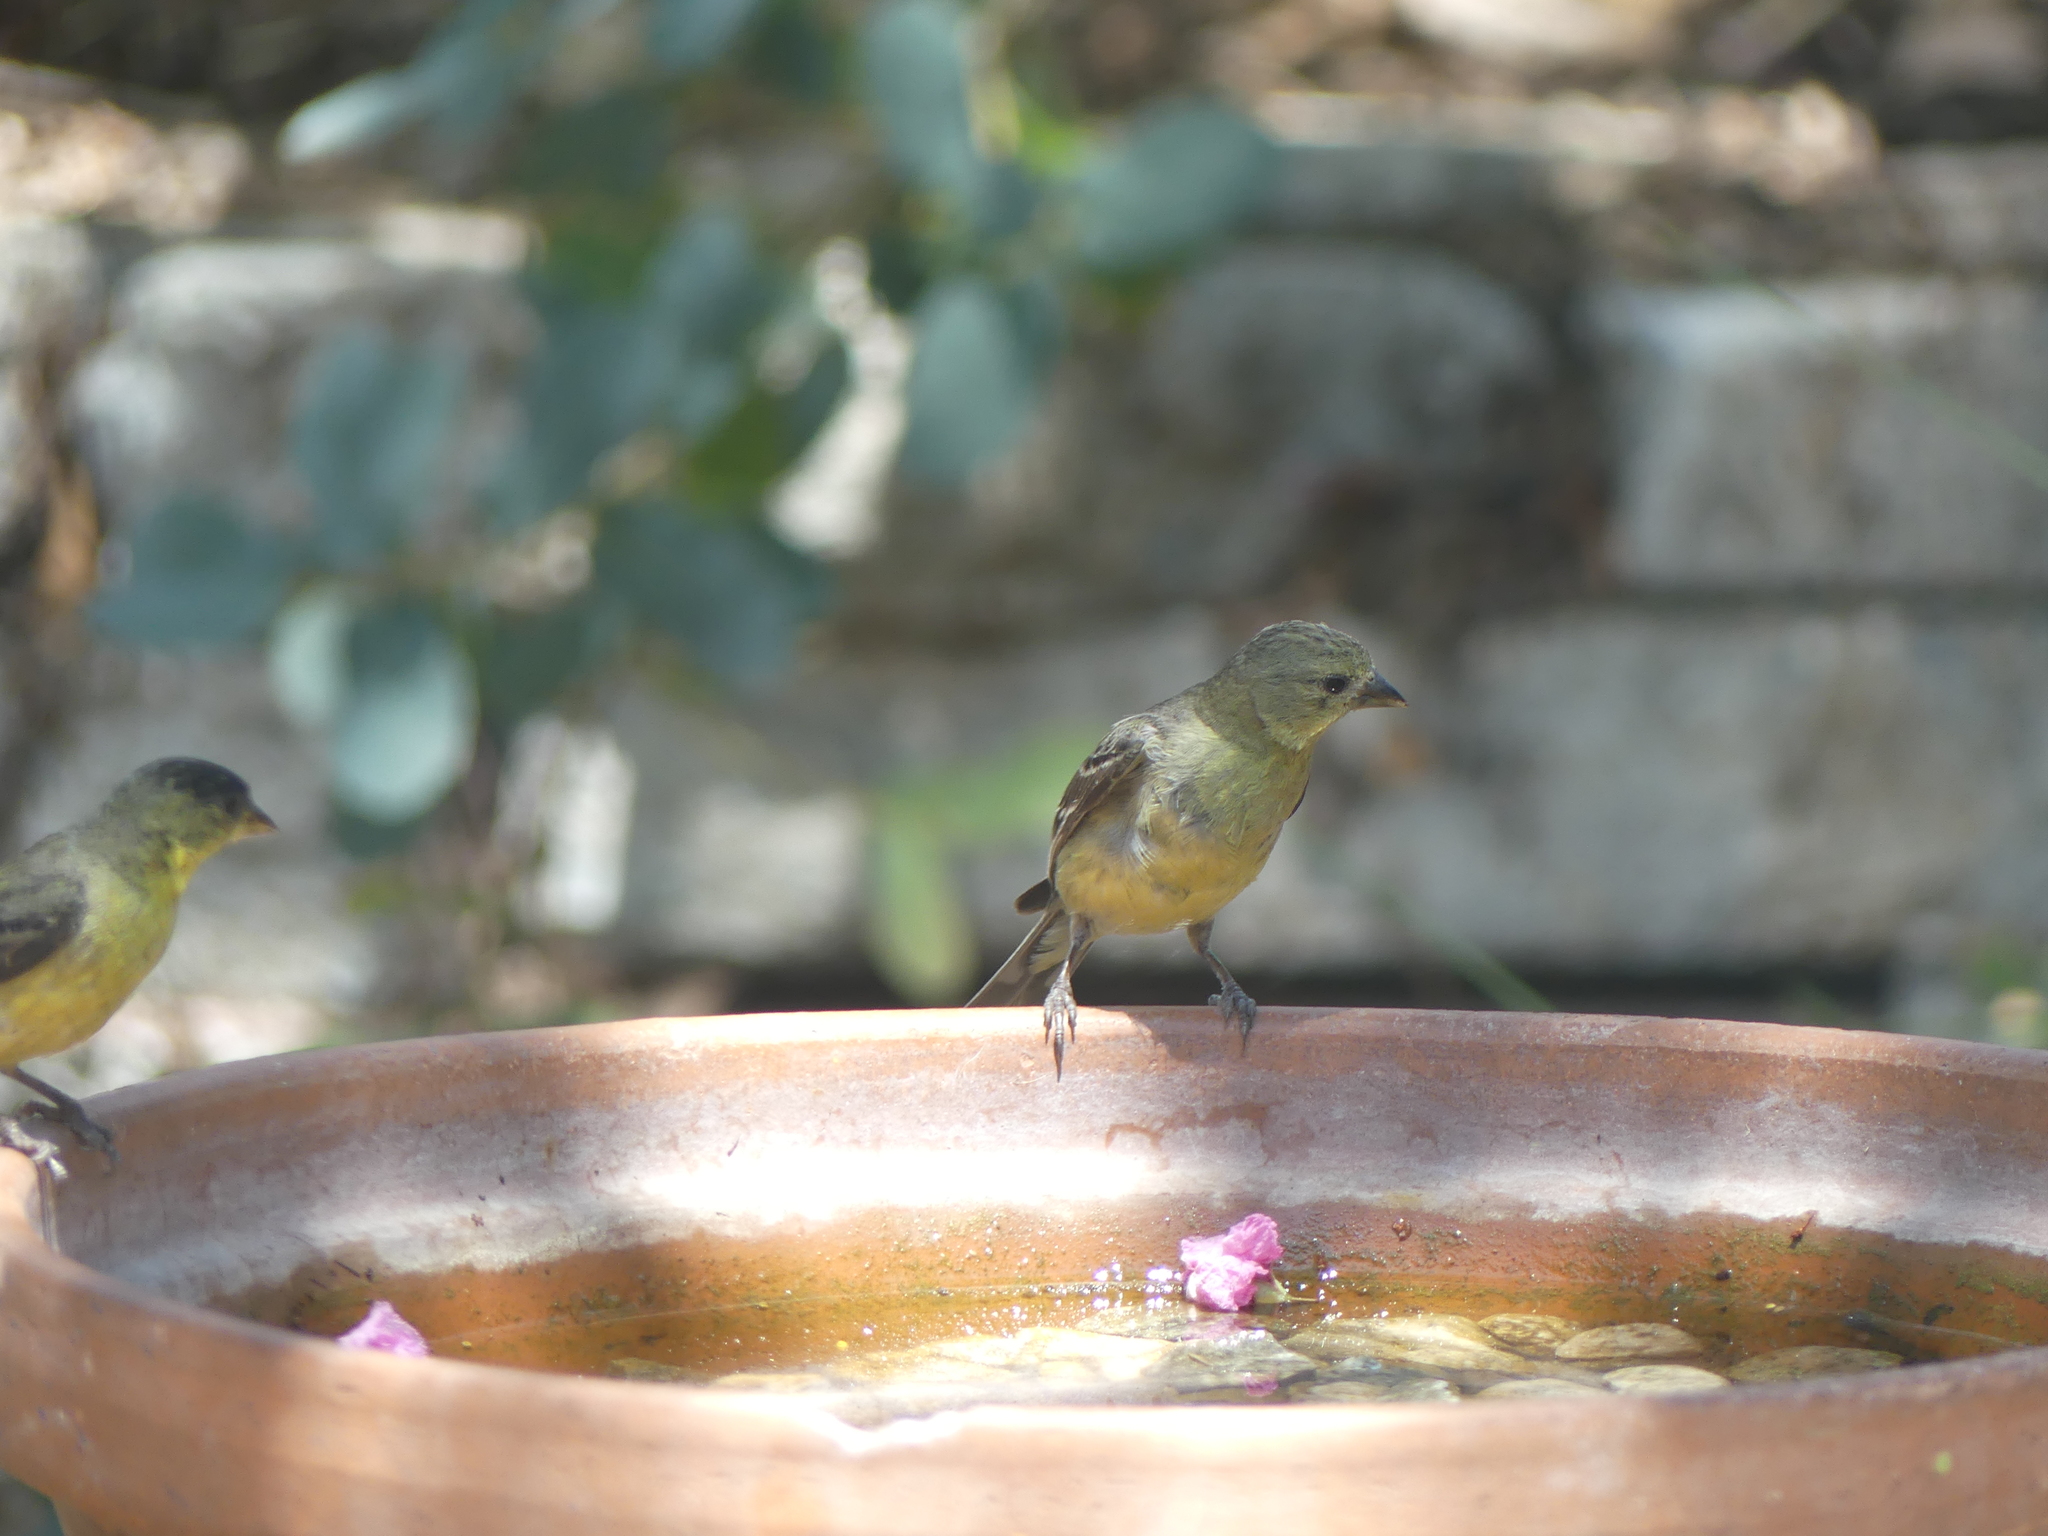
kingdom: Animalia
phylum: Chordata
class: Aves
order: Passeriformes
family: Fringillidae
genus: Spinus
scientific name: Spinus psaltria
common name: Lesser goldfinch
